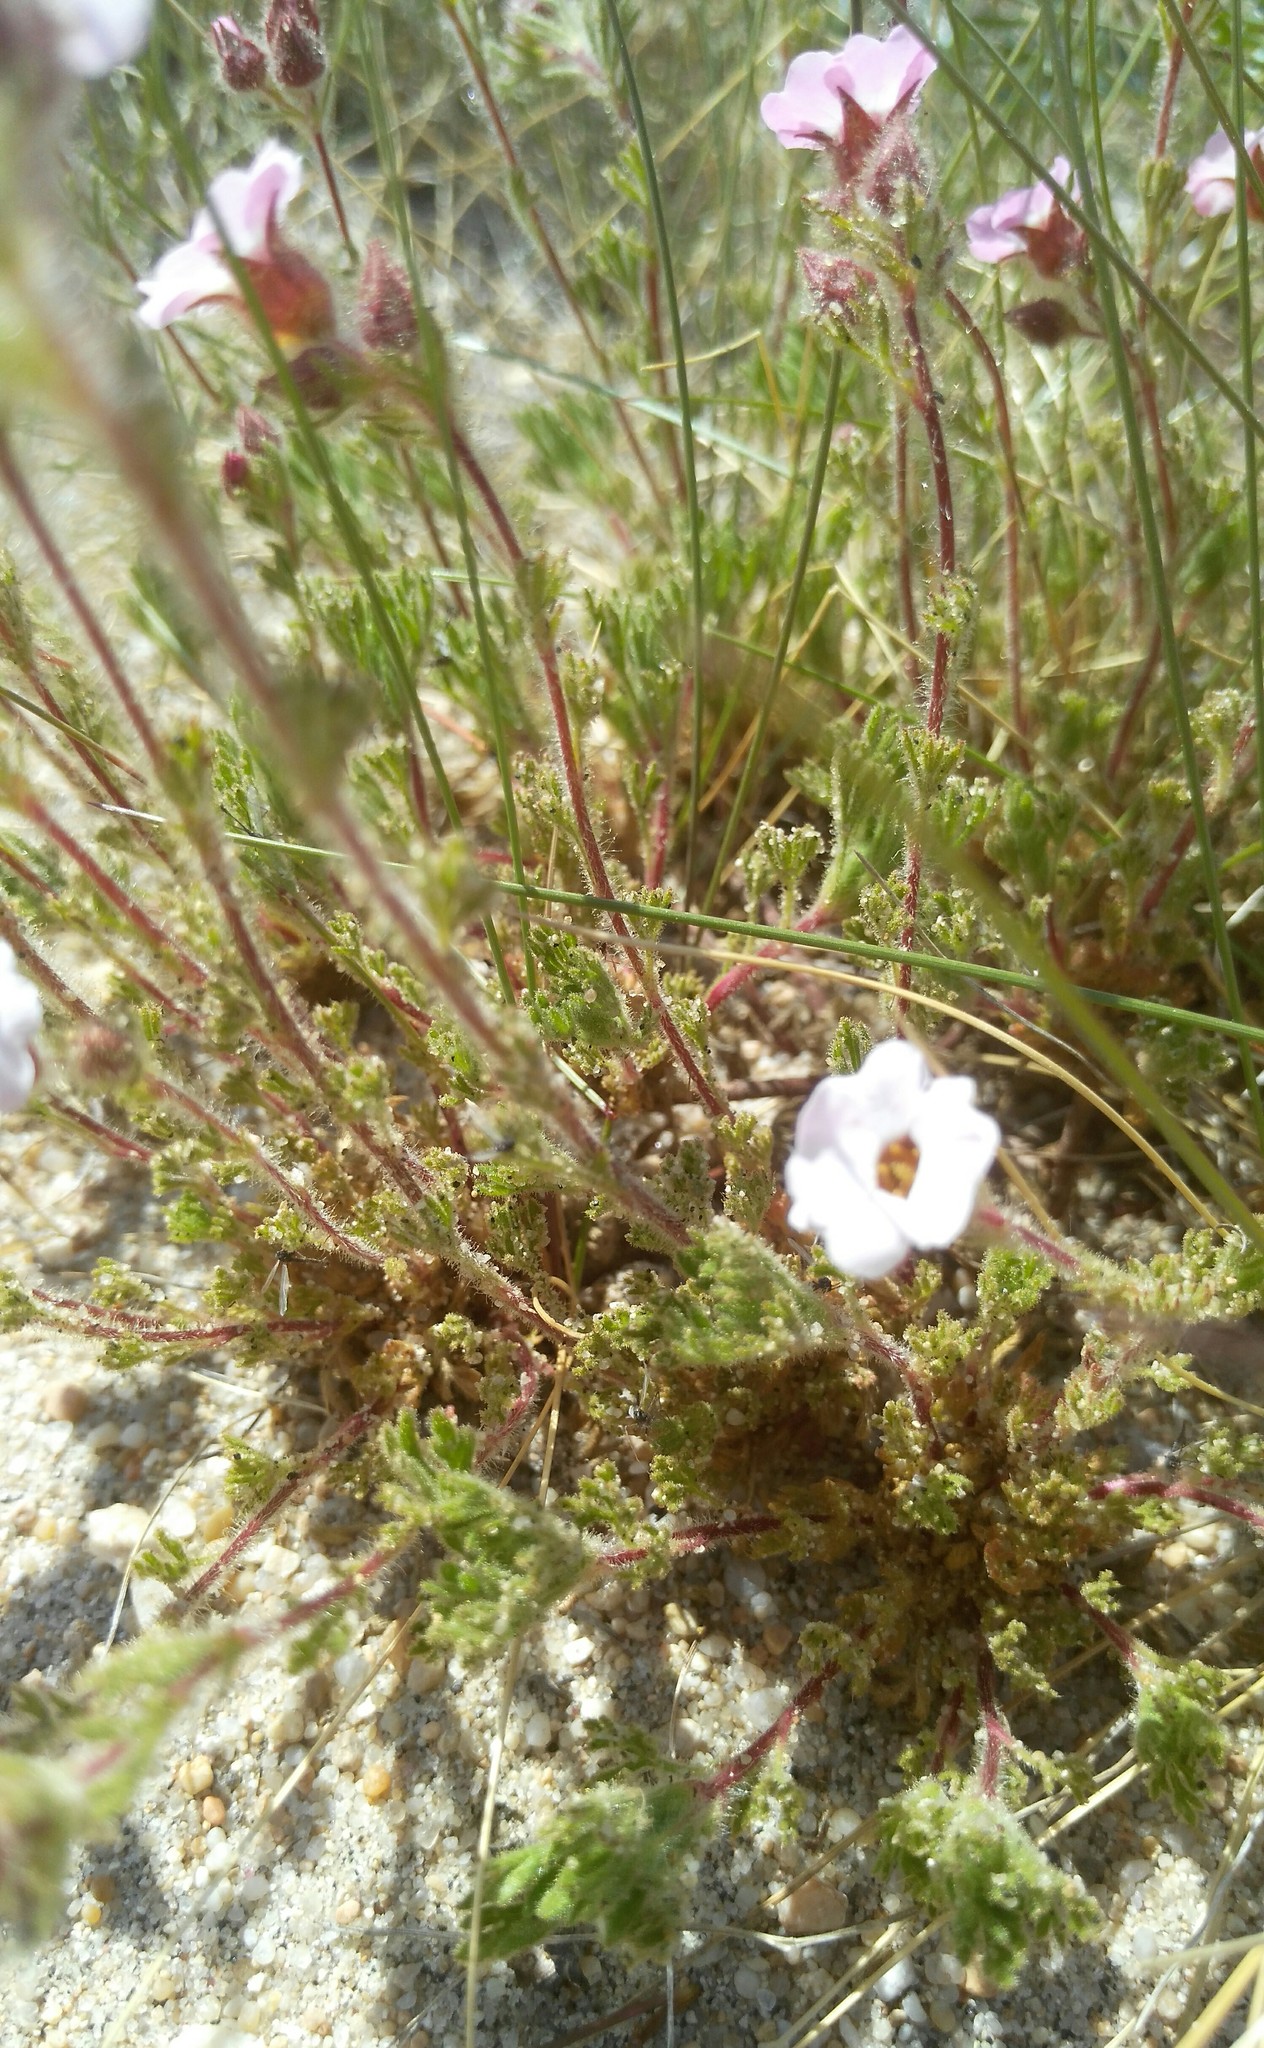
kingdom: Plantae
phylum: Tracheophyta
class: Magnoliopsida
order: Rosales
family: Rosaceae
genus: Chamaerhodos
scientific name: Chamaerhodos grandiflora
